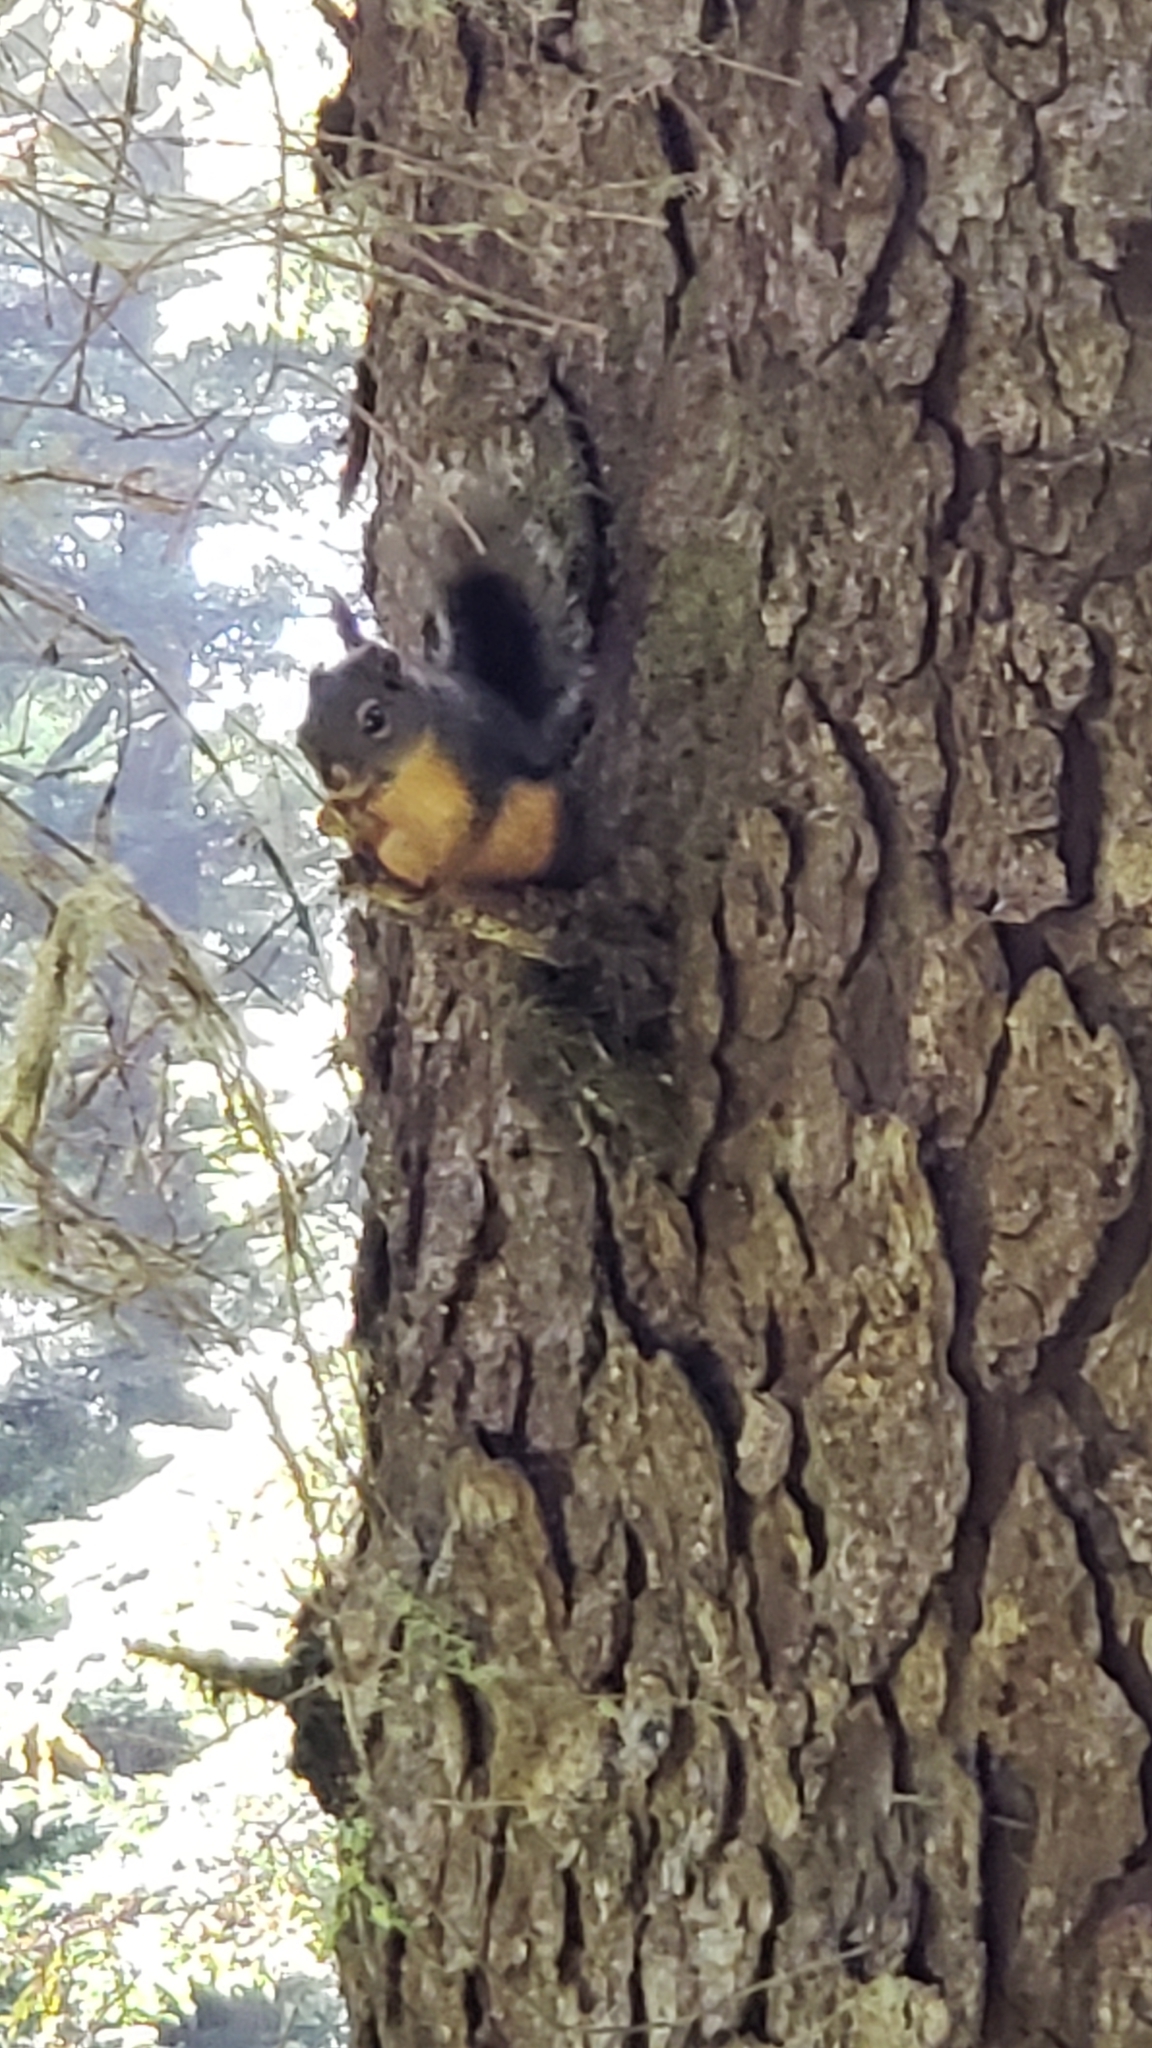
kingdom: Animalia
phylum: Chordata
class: Mammalia
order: Rodentia
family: Sciuridae
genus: Tamiasciurus
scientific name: Tamiasciurus douglasii
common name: Douglas's squirrel
